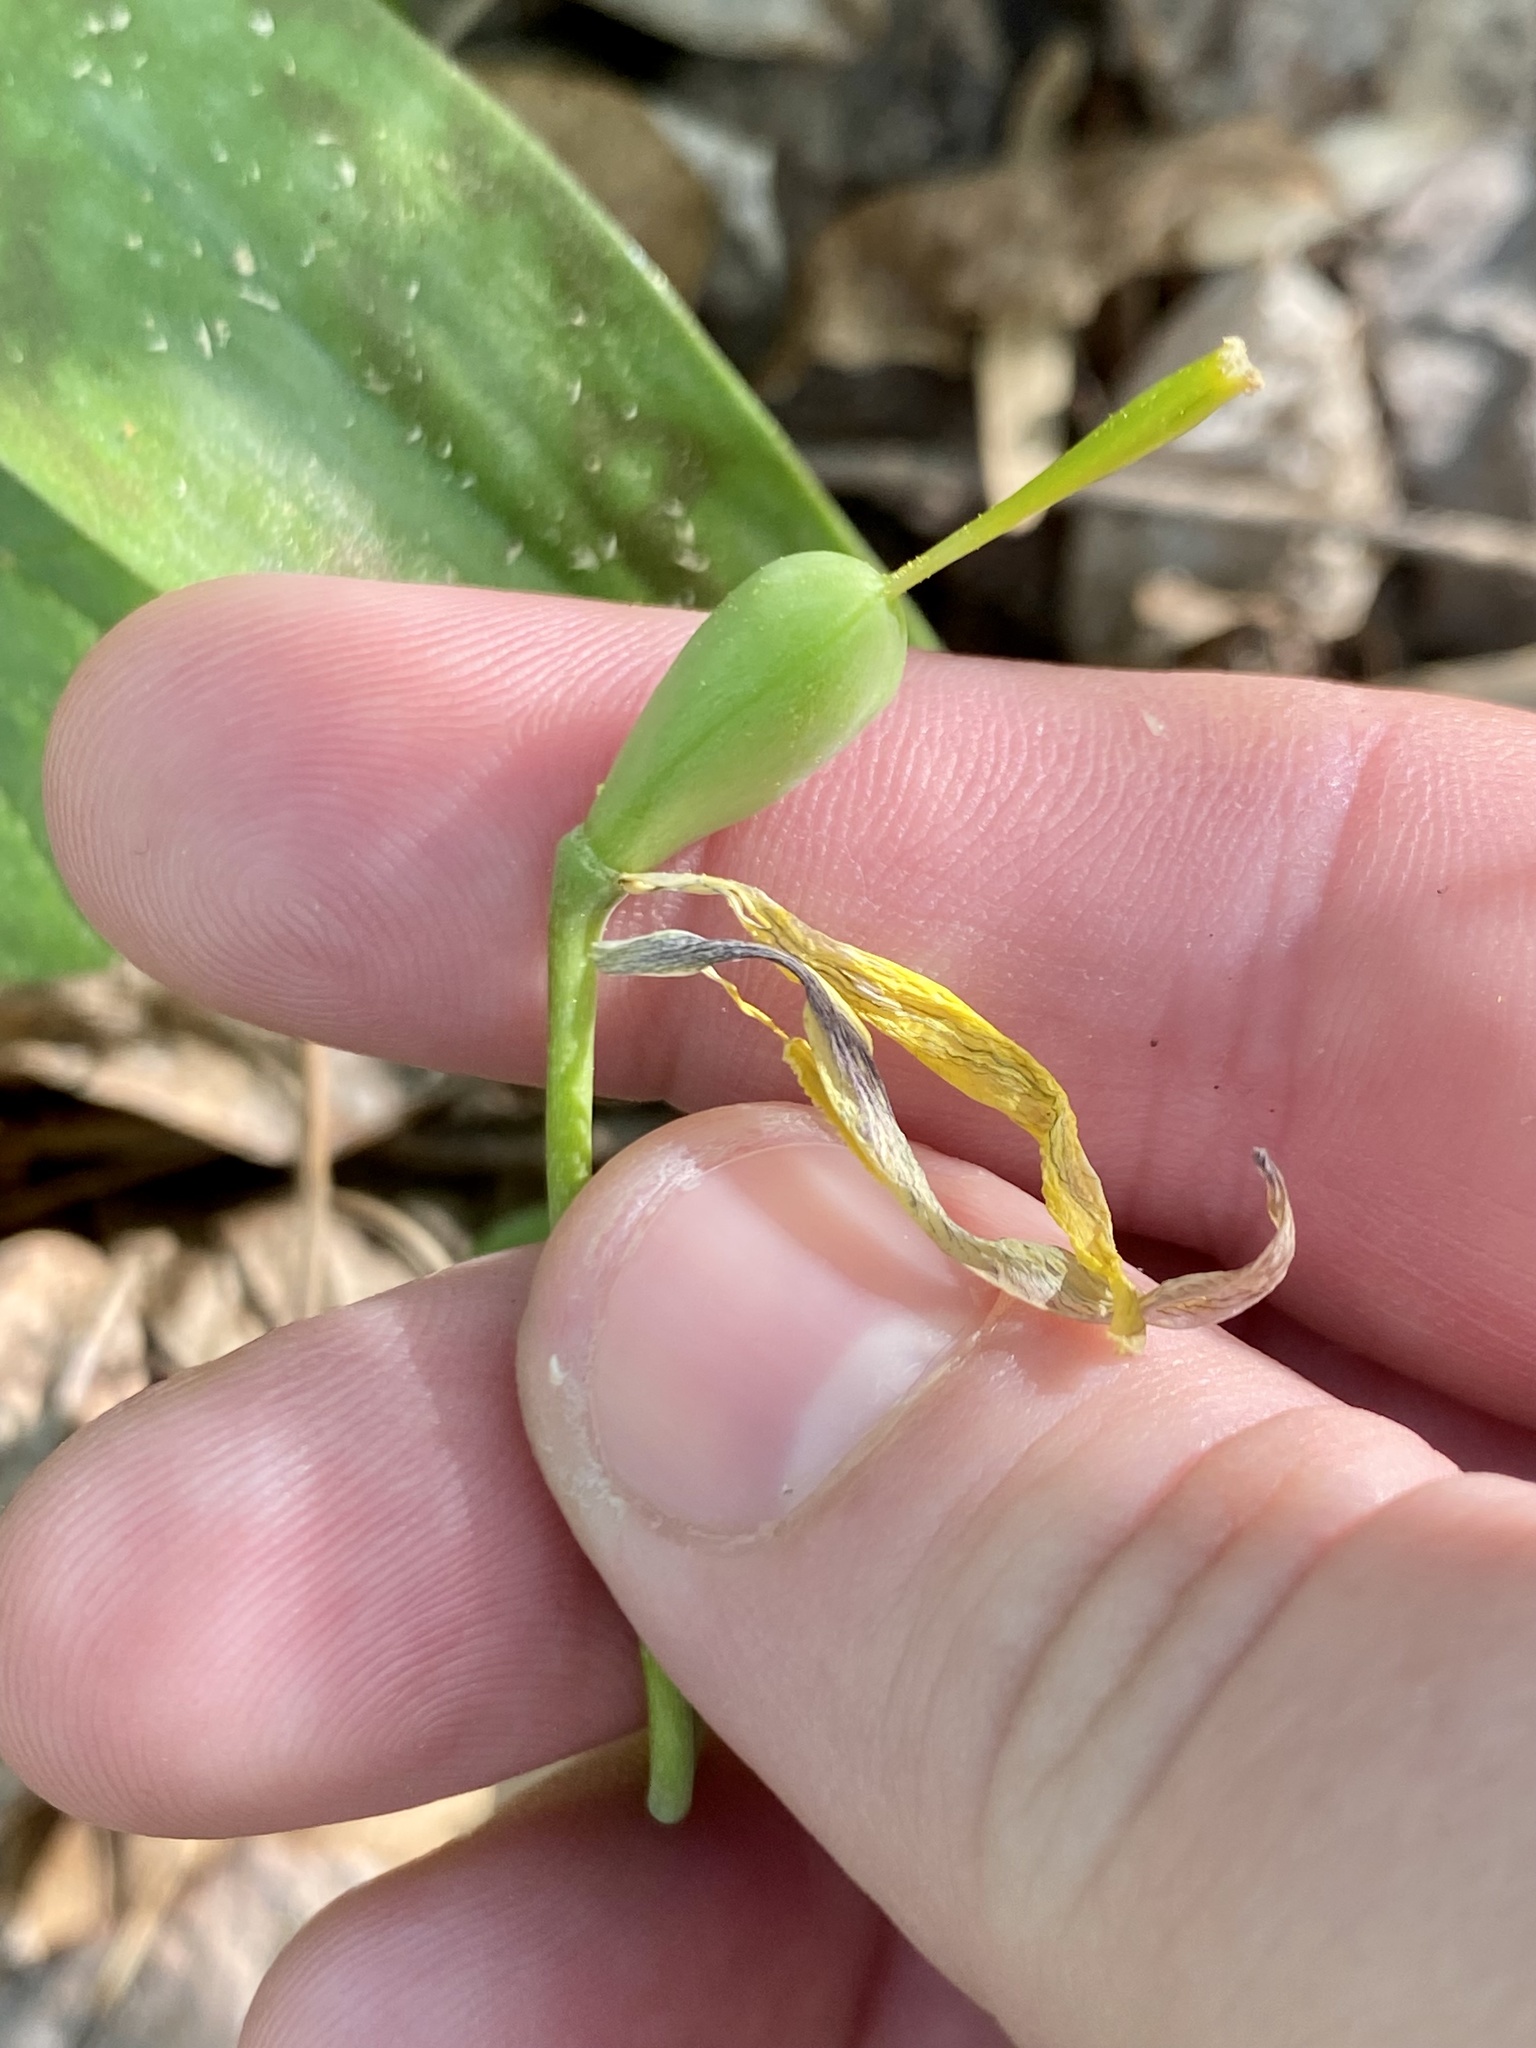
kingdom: Plantae
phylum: Tracheophyta
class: Liliopsida
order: Liliales
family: Liliaceae
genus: Erythronium
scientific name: Erythronium americanum
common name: Yellow adder's-tongue
